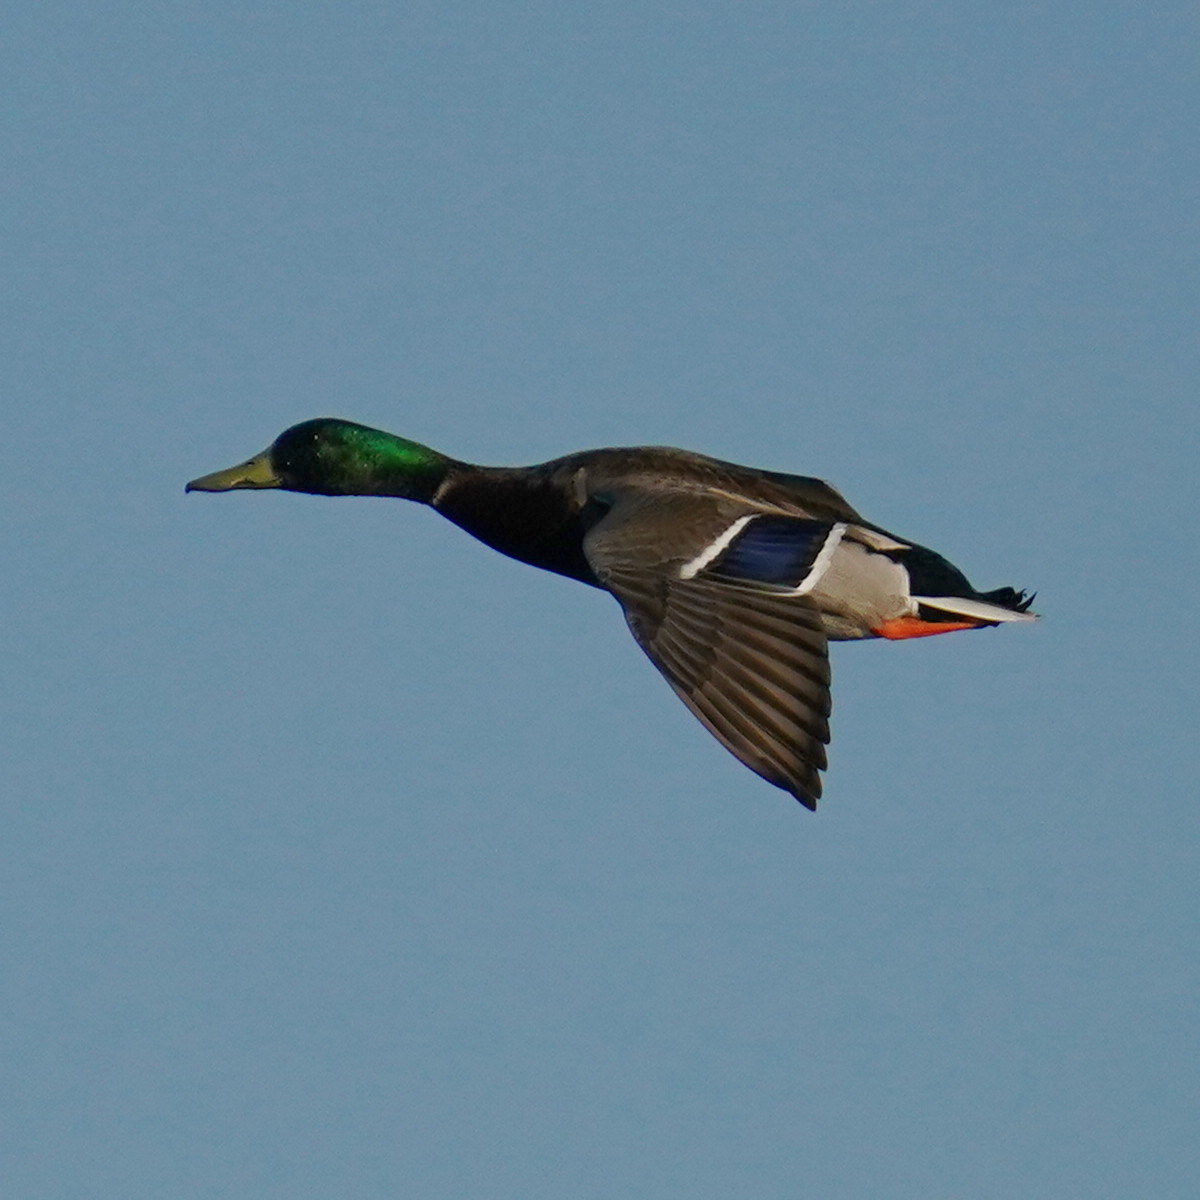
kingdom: Animalia
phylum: Chordata
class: Aves
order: Anseriformes
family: Anatidae
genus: Anas
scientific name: Anas platyrhynchos
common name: Mallard
